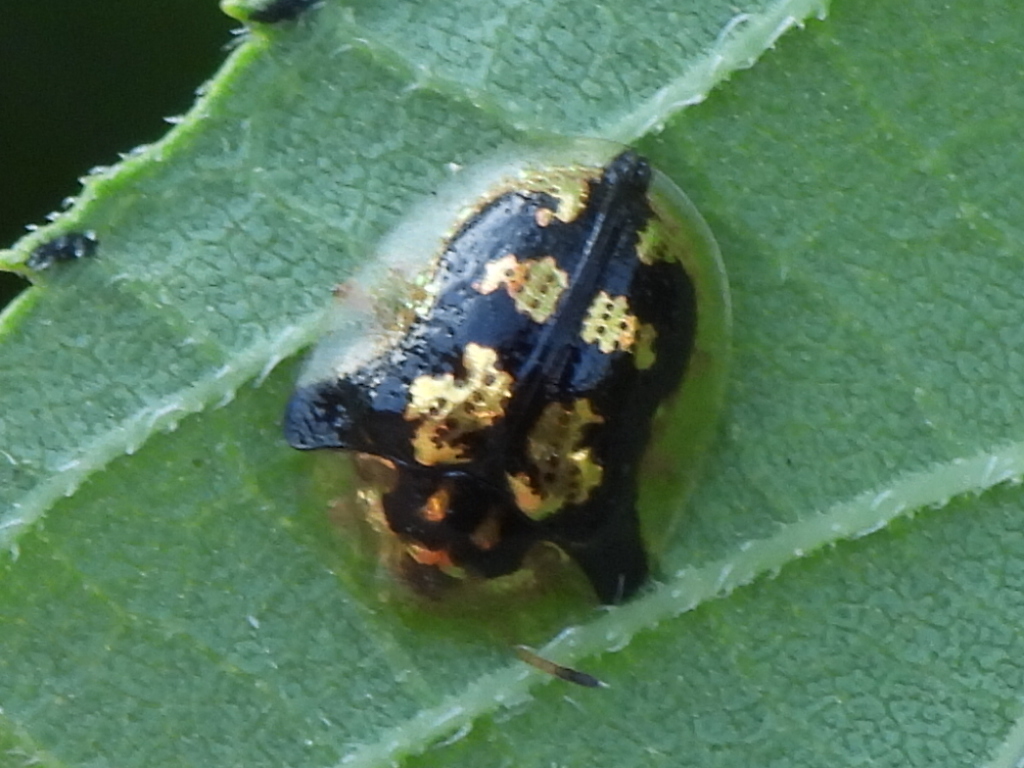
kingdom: Animalia
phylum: Arthropoda
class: Insecta
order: Coleoptera
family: Chrysomelidae
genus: Deloyala
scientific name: Deloyala guttata
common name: Mottled tortoise beetle
